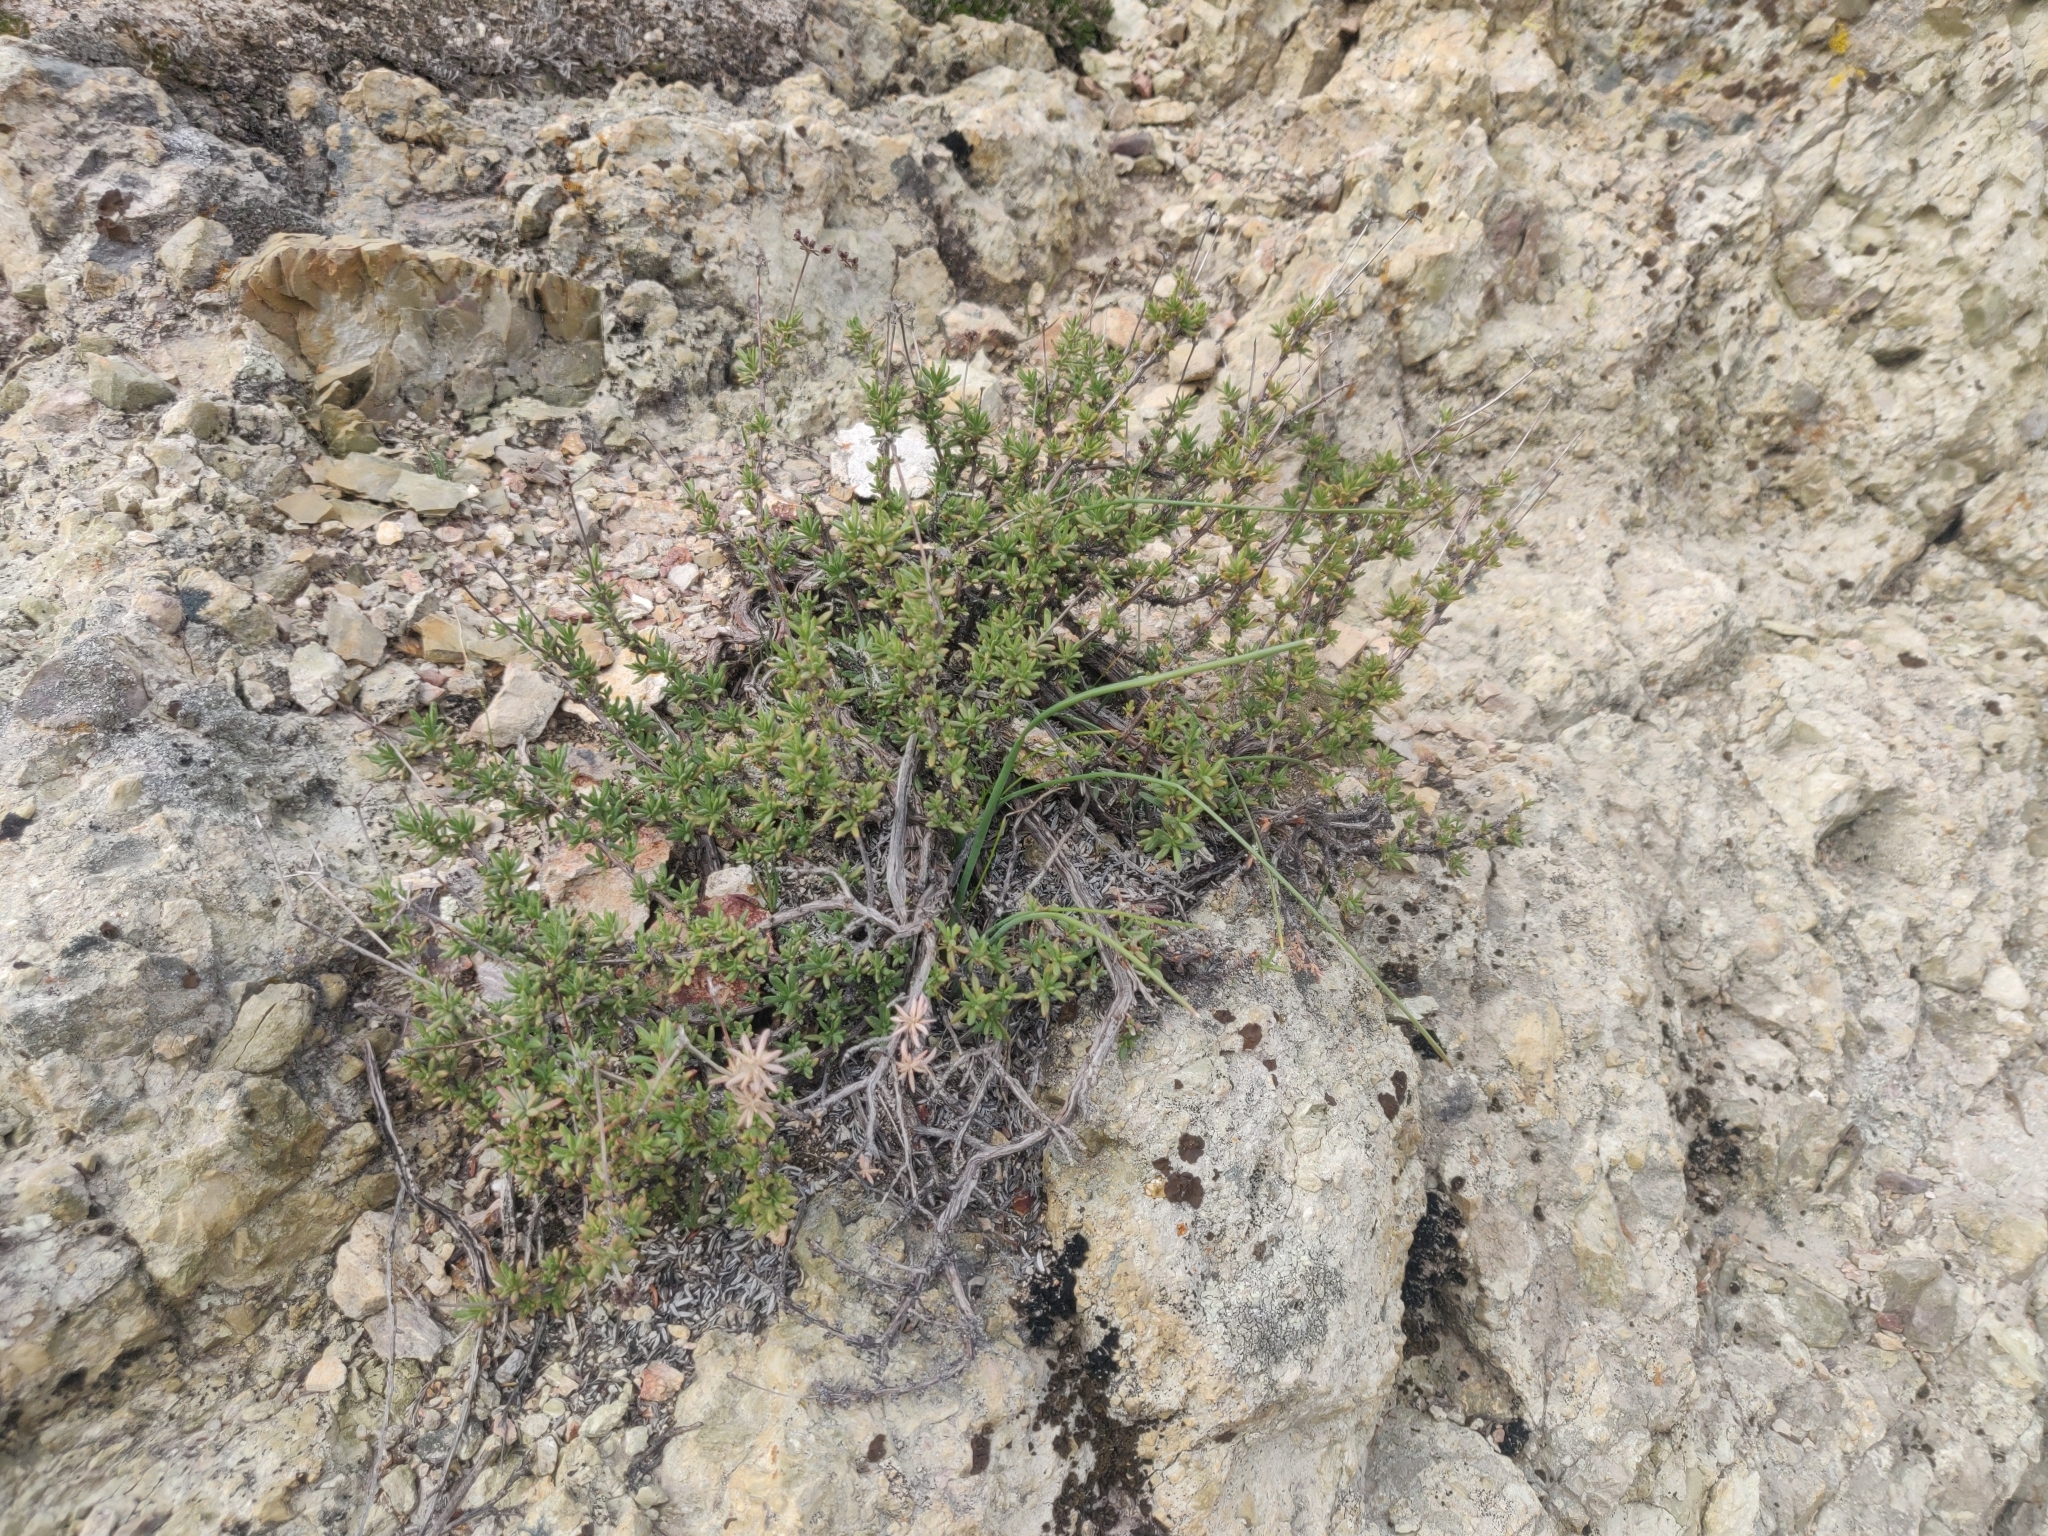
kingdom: Plantae
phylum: Tracheophyta
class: Magnoliopsida
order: Caryophyllales
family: Polygonaceae
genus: Eriogonum
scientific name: Eriogonum fasciculatum
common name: California wild buckwheat
